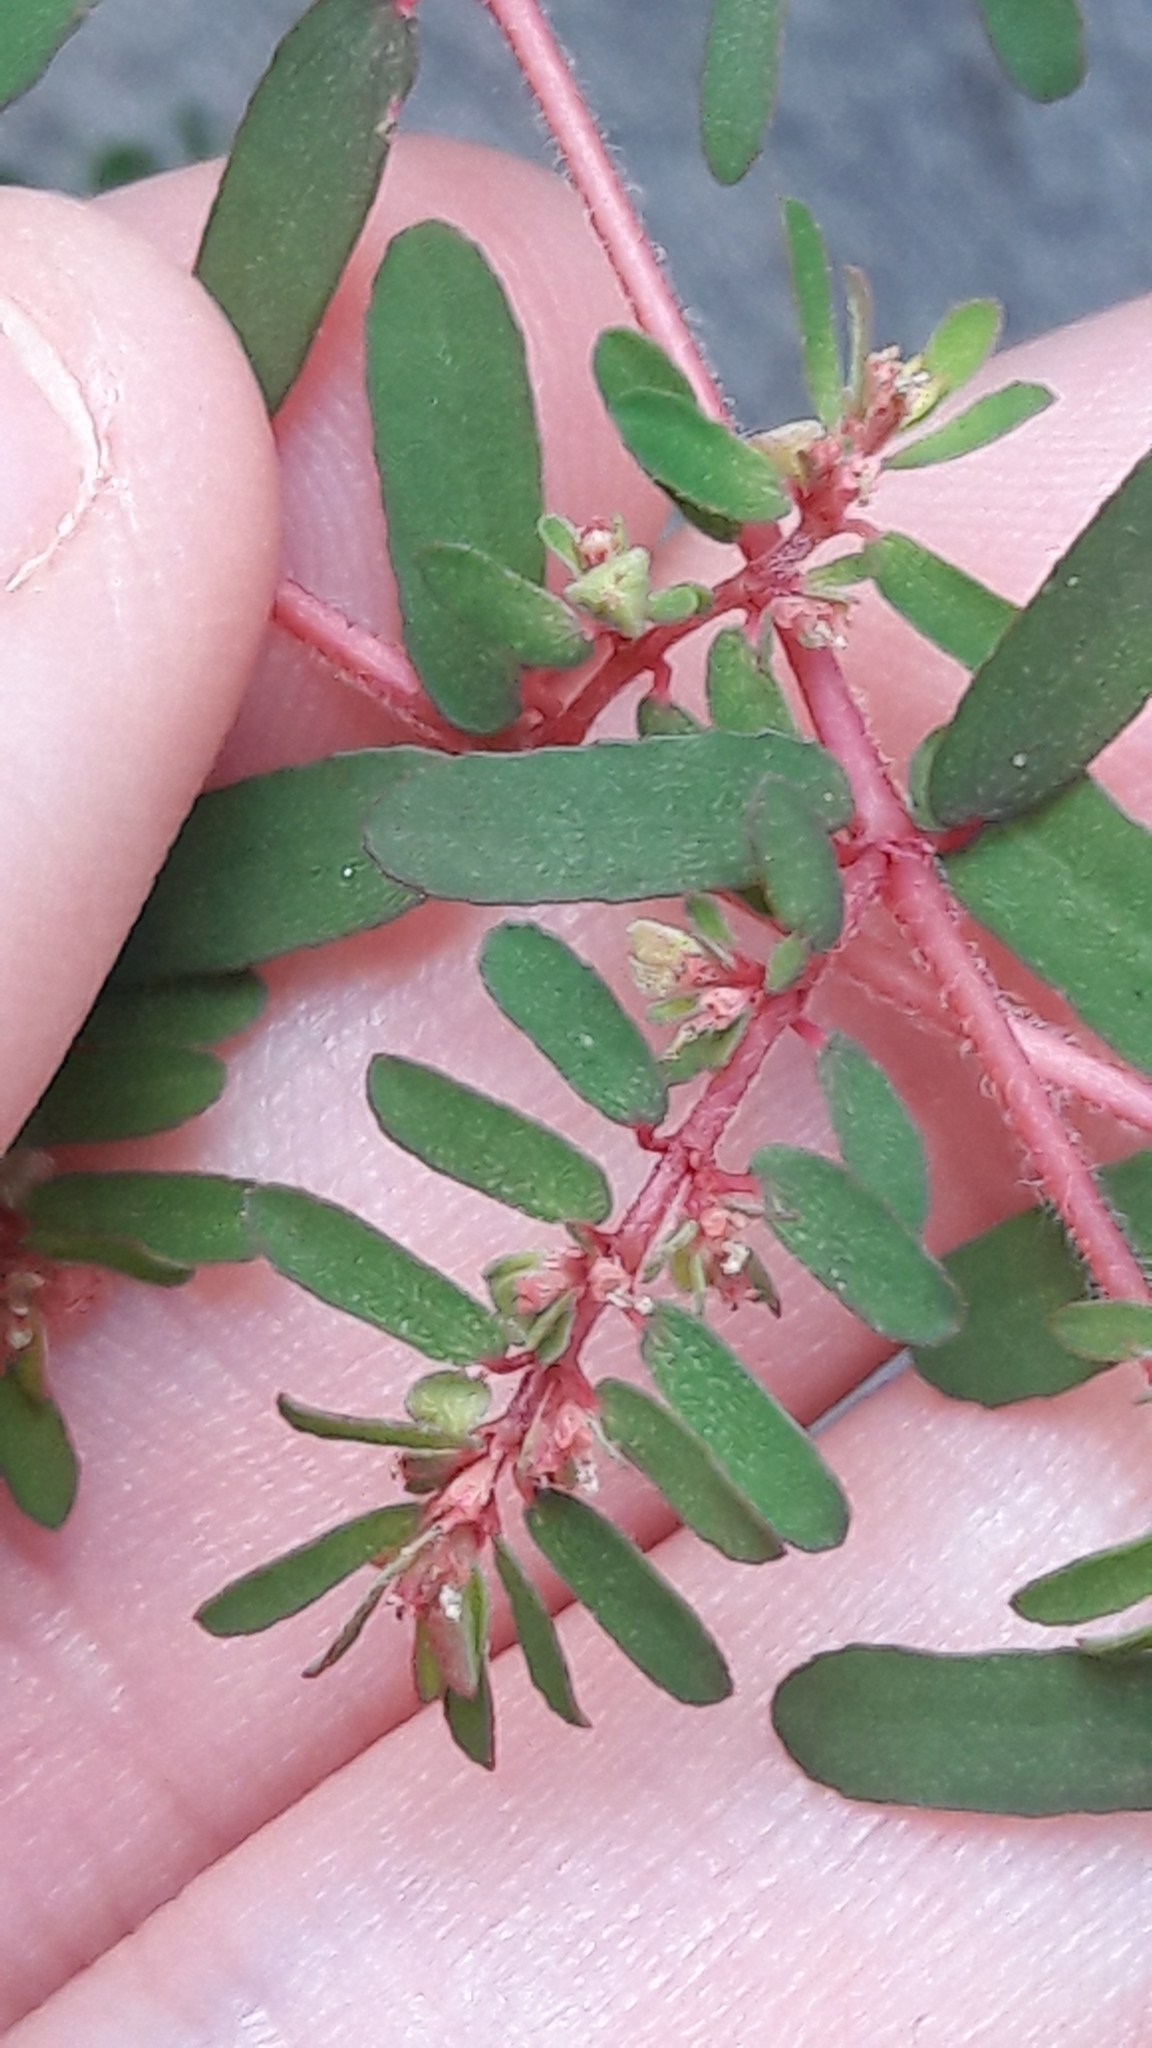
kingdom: Plantae
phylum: Tracheophyta
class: Magnoliopsida
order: Malpighiales
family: Euphorbiaceae
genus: Euphorbia
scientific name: Euphorbia maculata
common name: Spotted spurge
